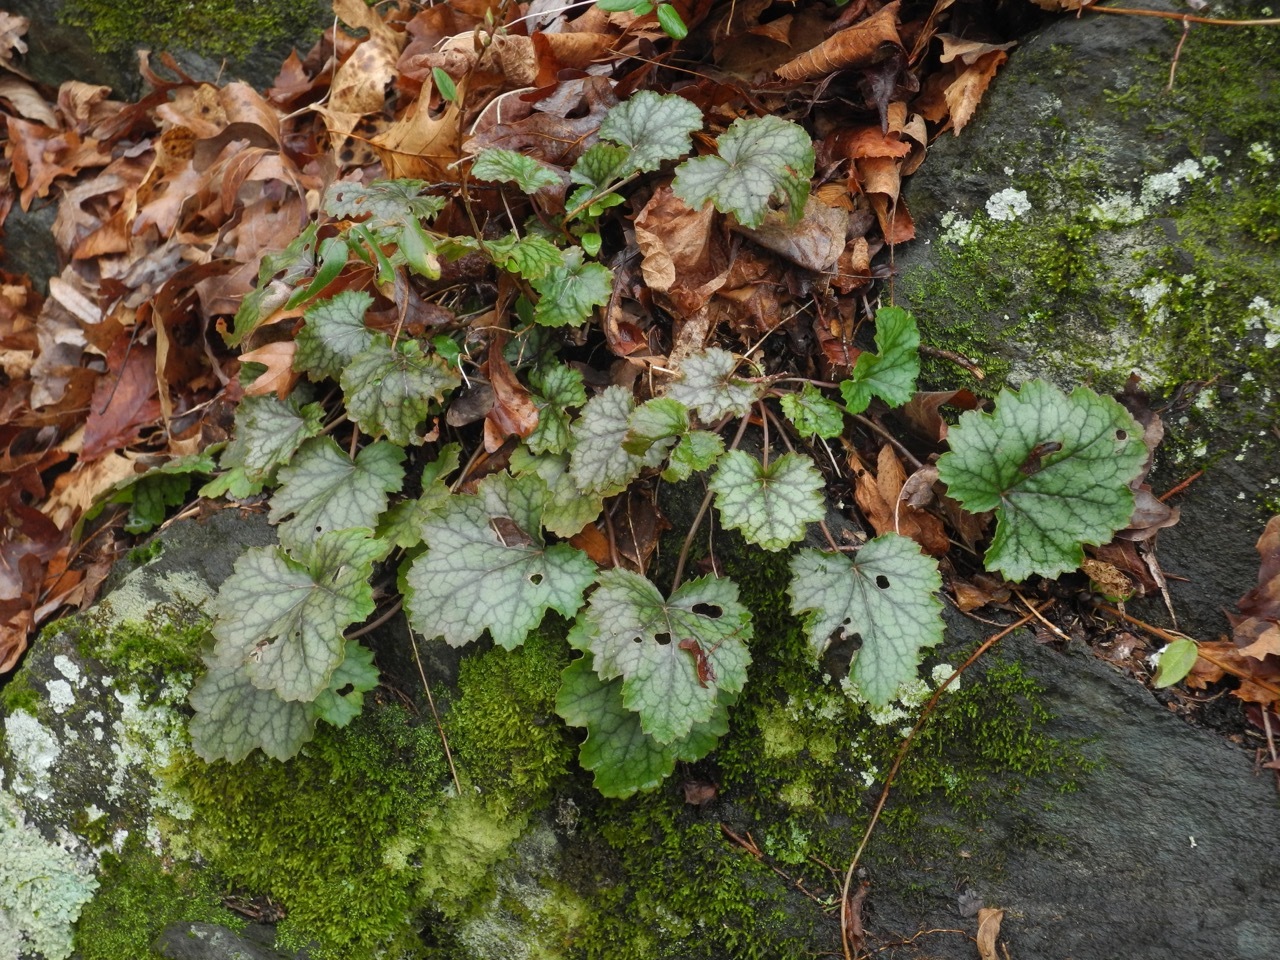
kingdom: Plantae
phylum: Tracheophyta
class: Magnoliopsida
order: Saxifragales
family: Saxifragaceae
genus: Heuchera
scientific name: Heuchera americana
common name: Alumroot
